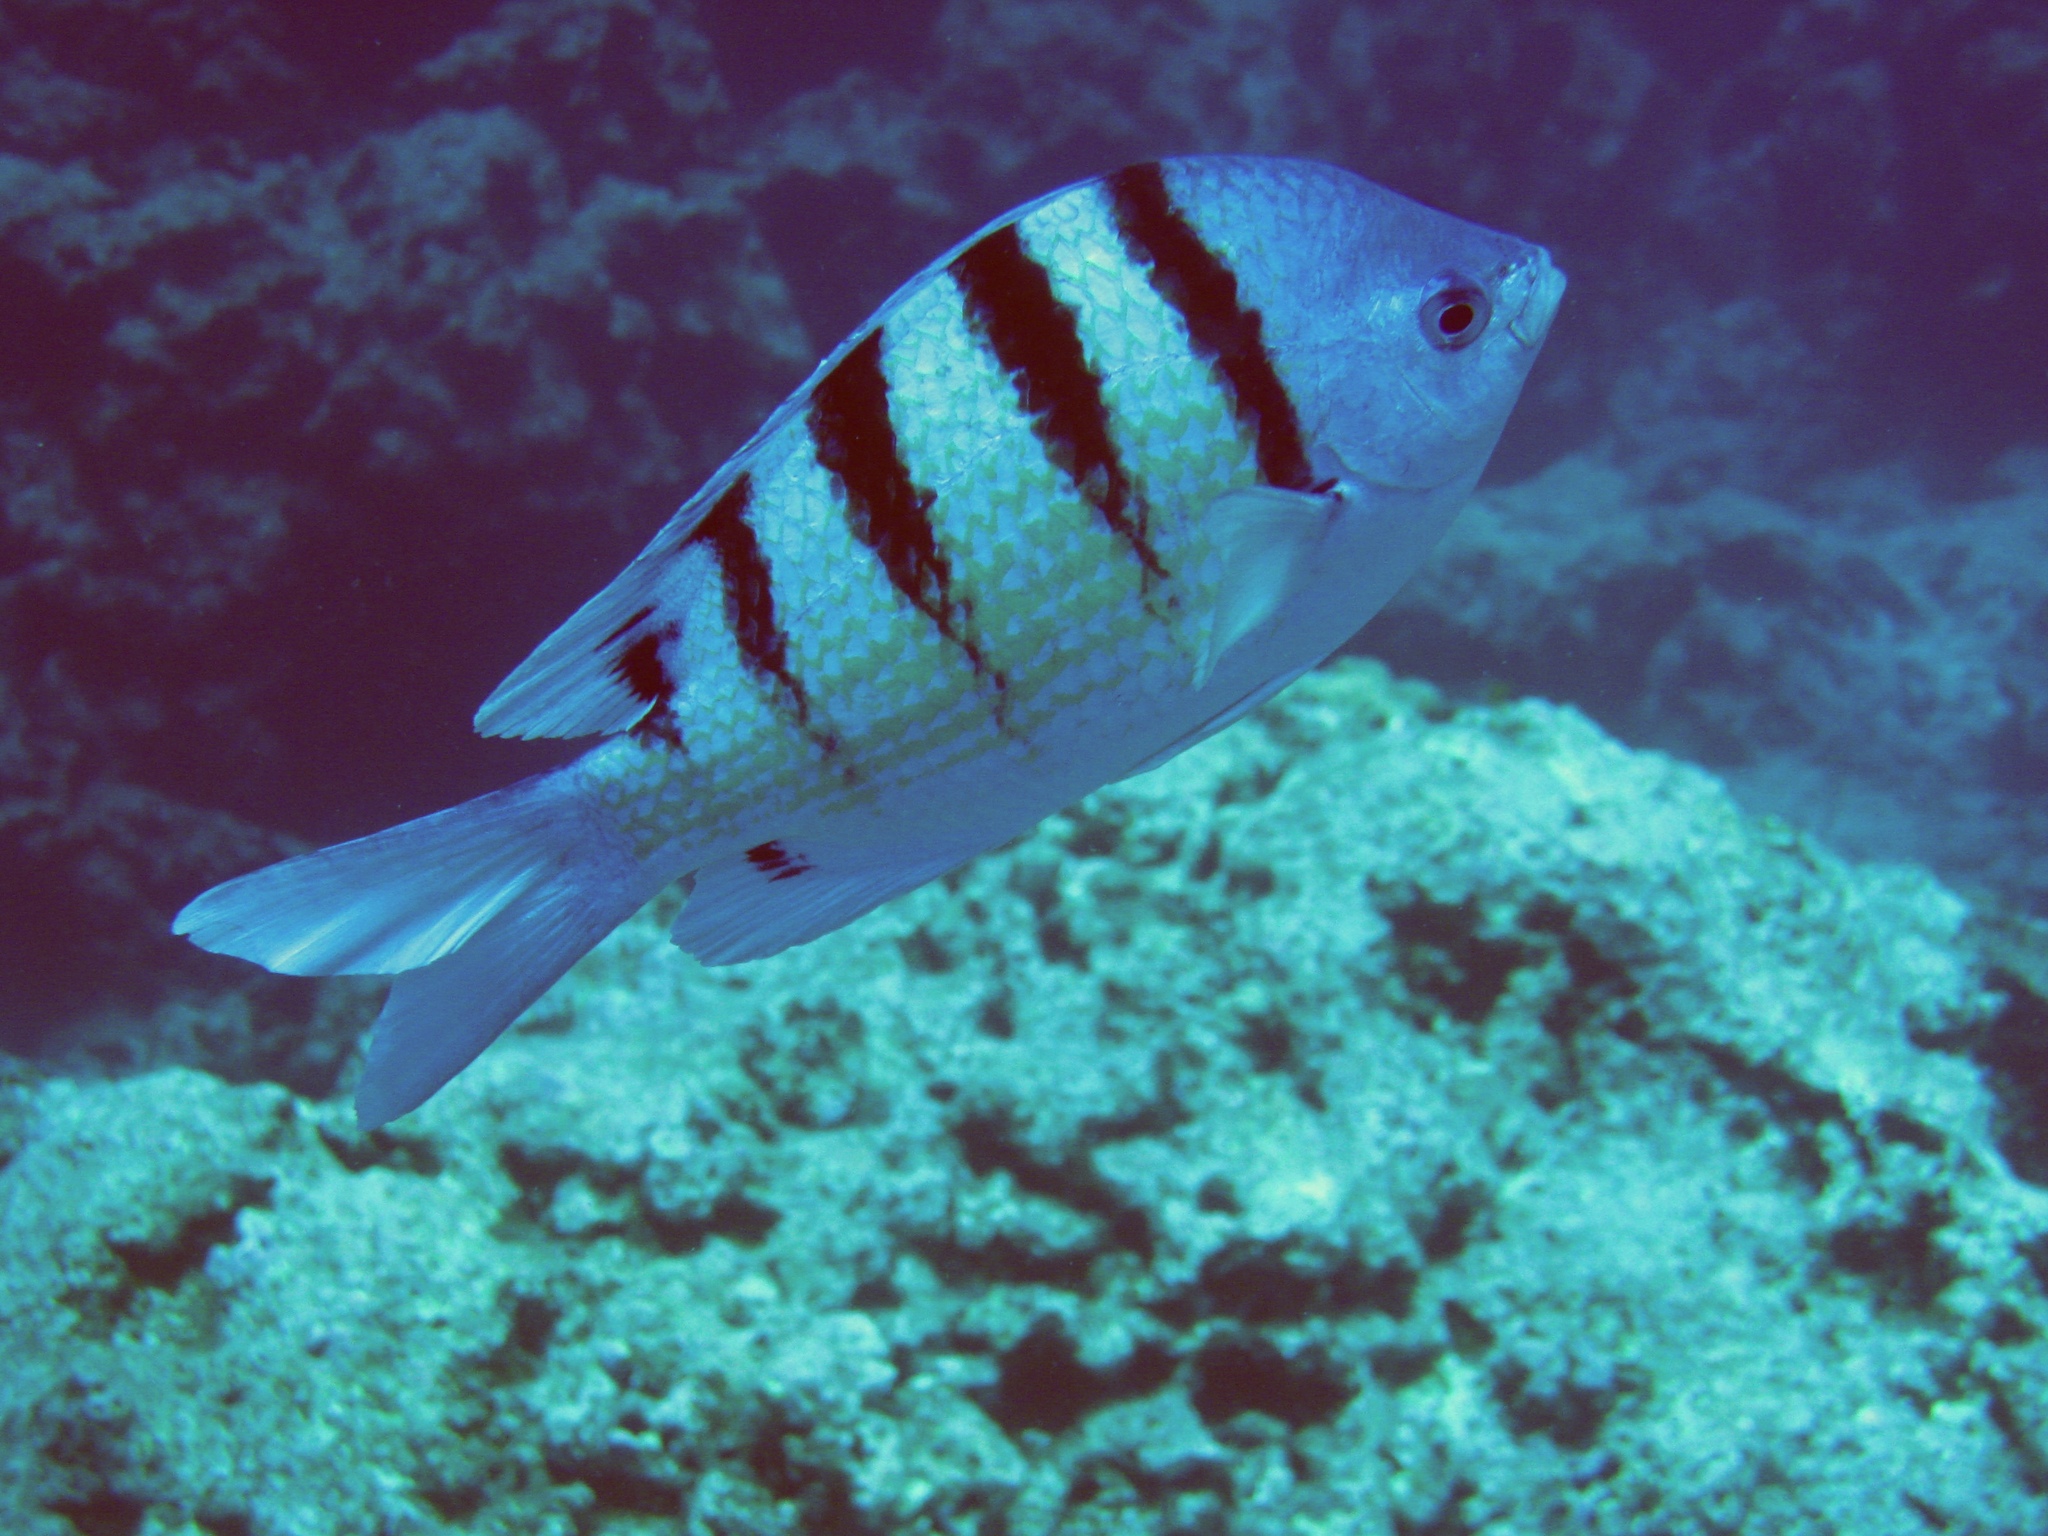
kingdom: Animalia
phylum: Chordata
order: Perciformes
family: Pomacentridae
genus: Abudefduf
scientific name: Abudefduf abdominalis
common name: Green damselfish
